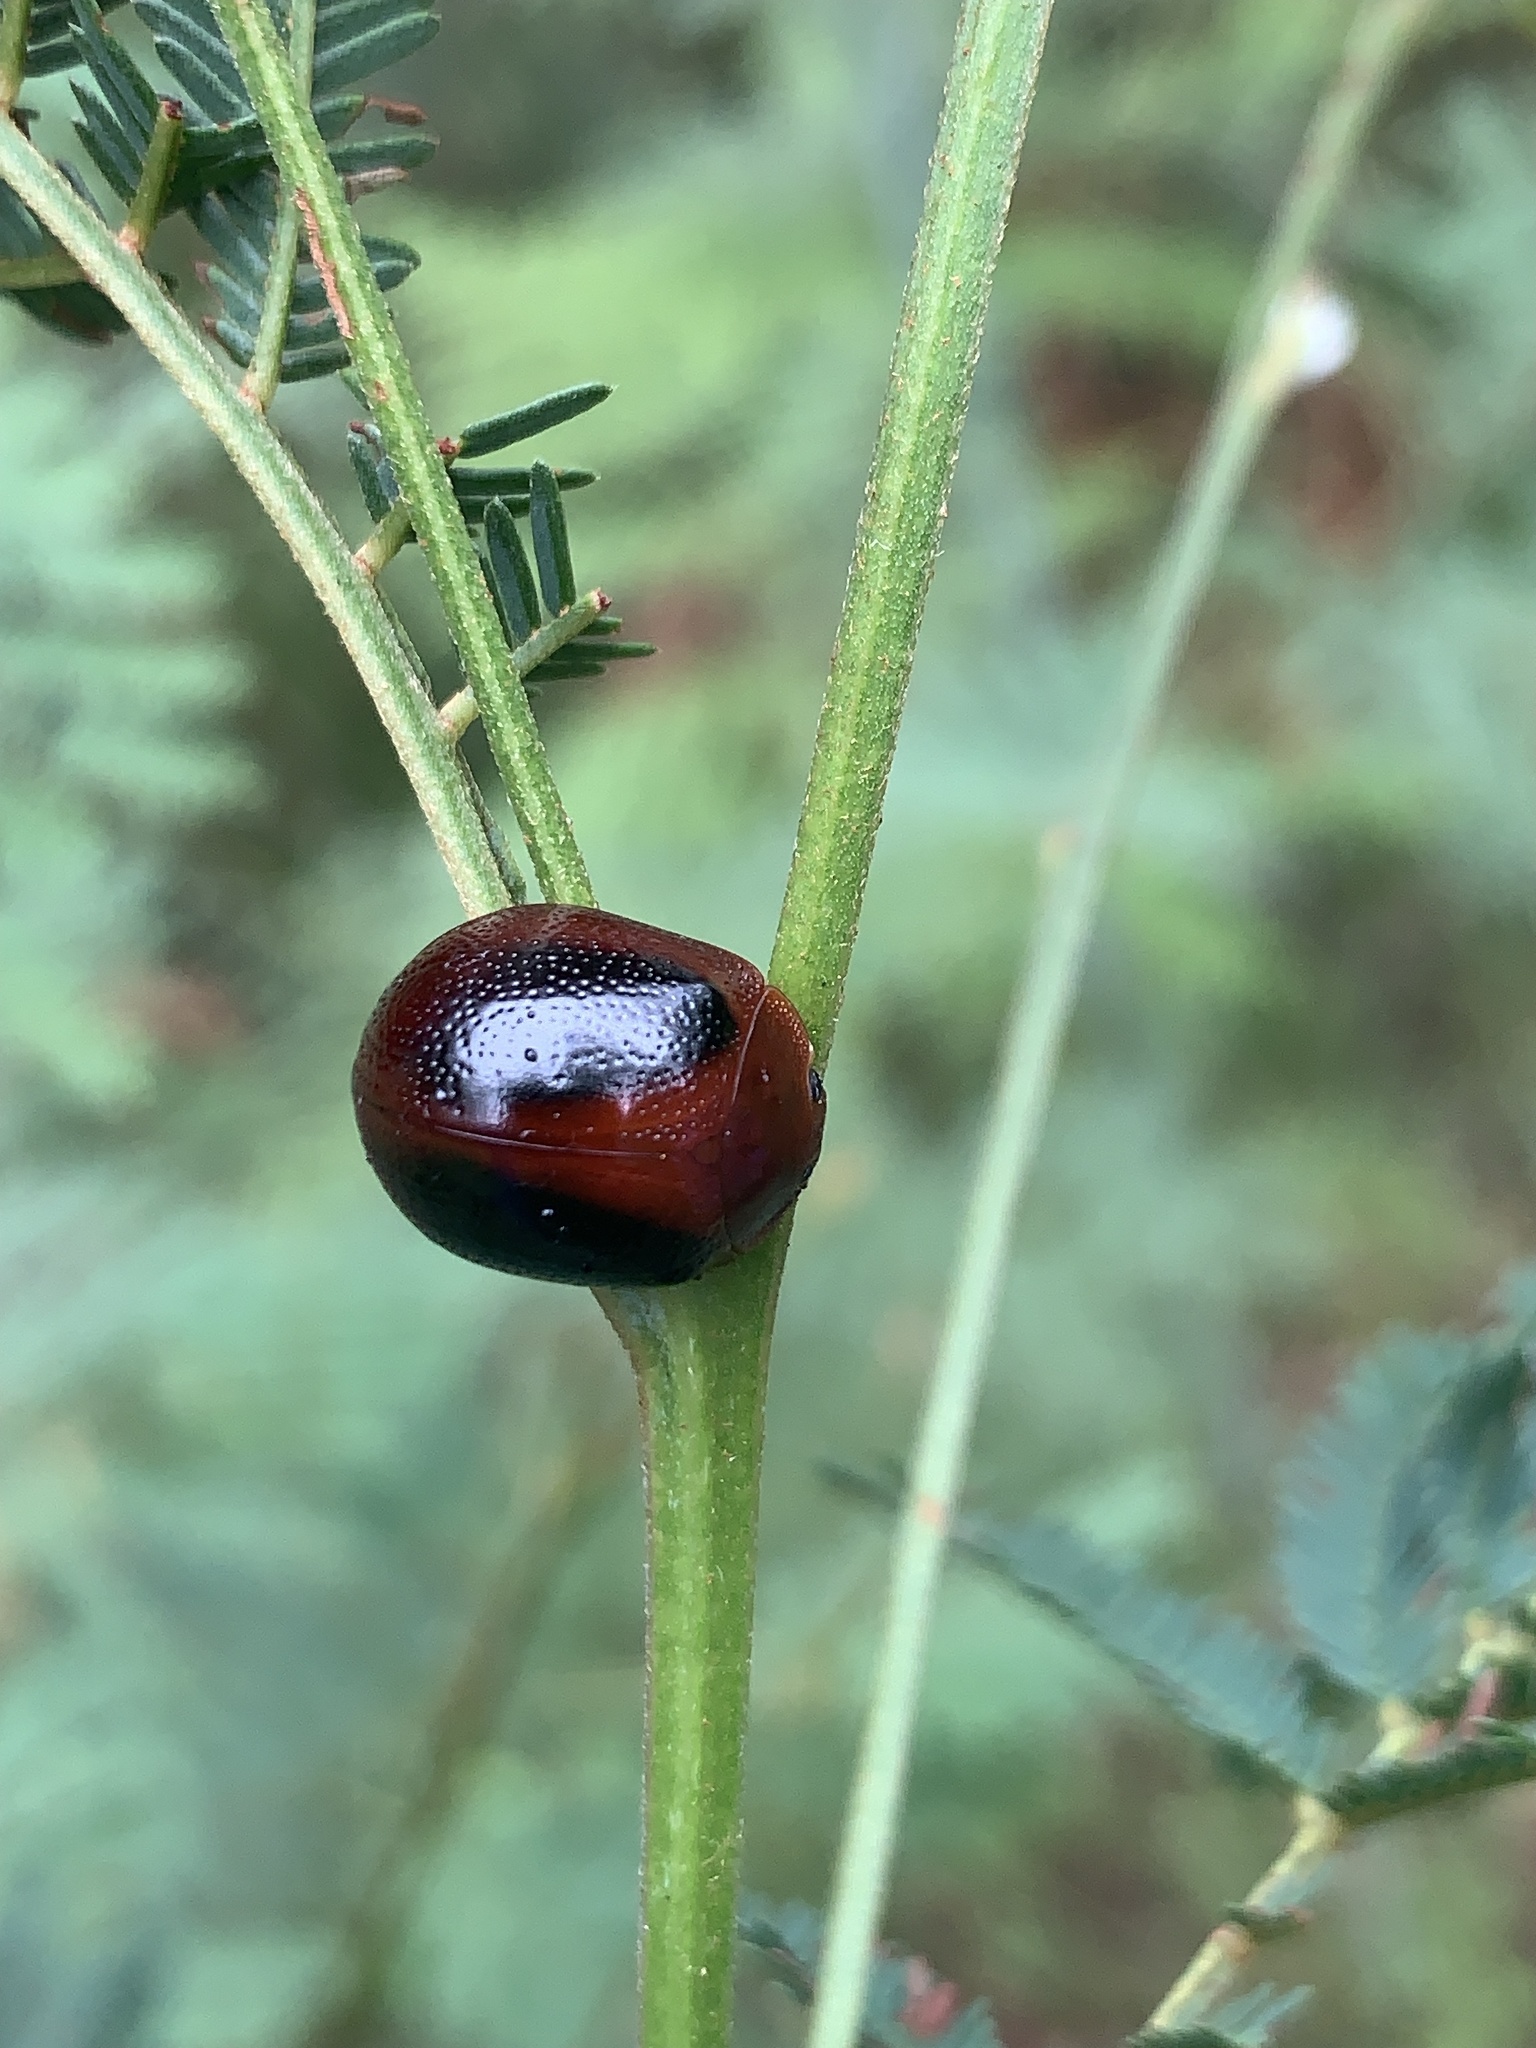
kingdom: Animalia
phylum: Arthropoda
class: Insecta
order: Coleoptera
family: Chrysomelidae
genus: Dicranosterna
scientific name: Dicranosterna
